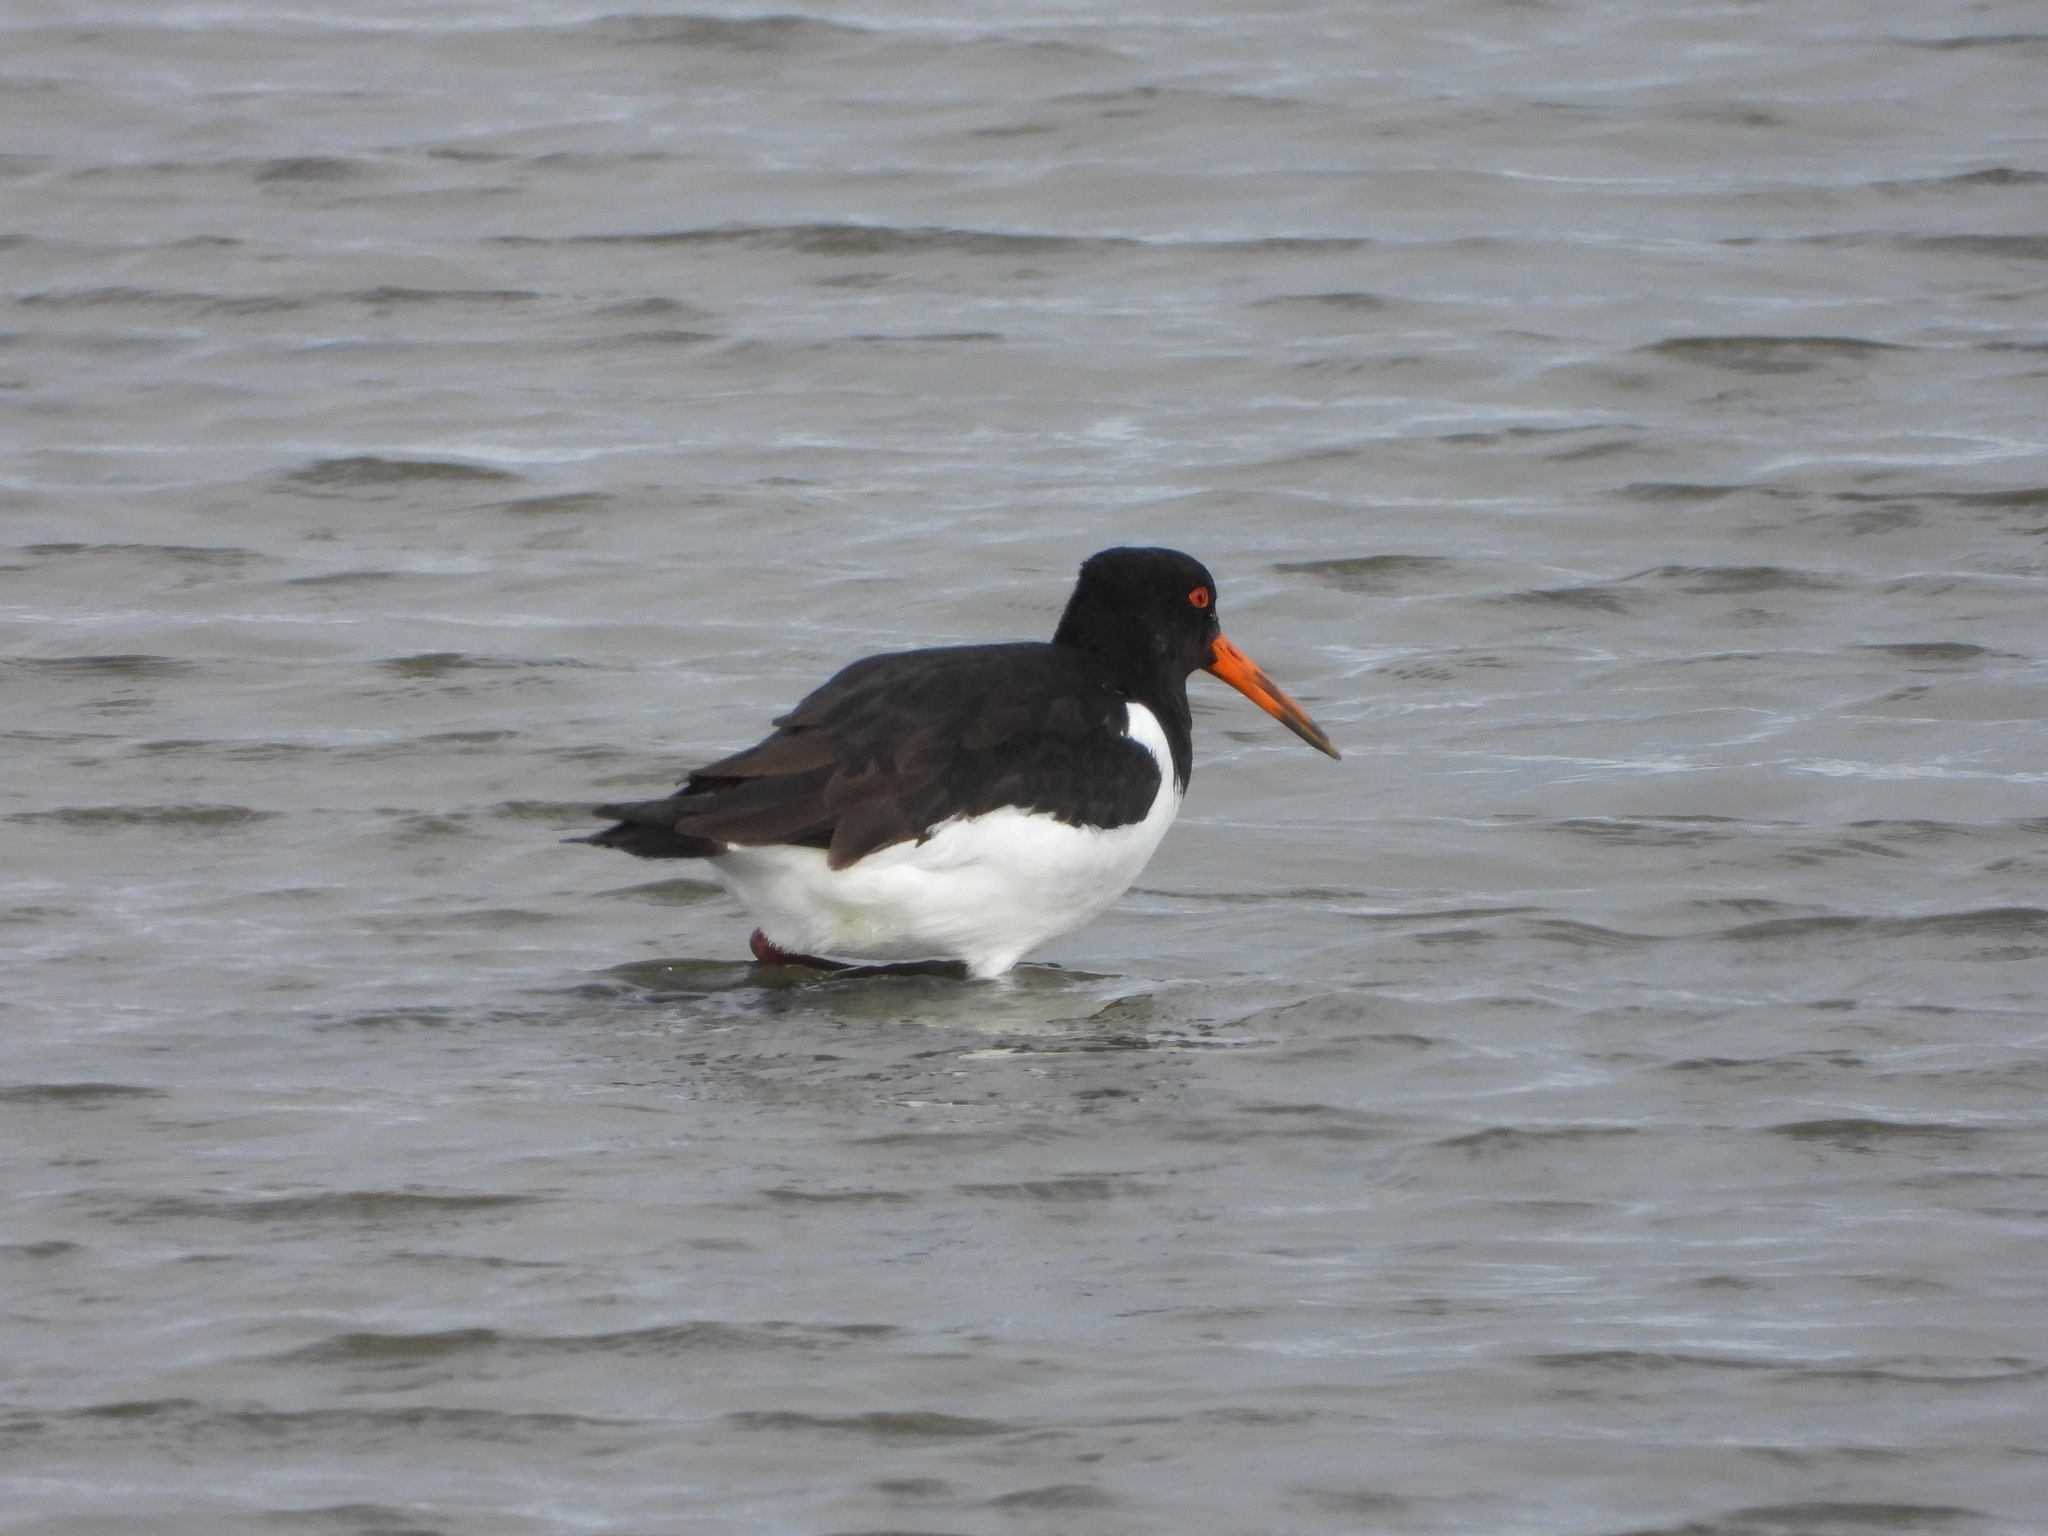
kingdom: Animalia
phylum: Chordata
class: Aves
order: Charadriiformes
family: Haematopodidae
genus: Haematopus
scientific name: Haematopus ostralegus
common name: Eurasian oystercatcher
